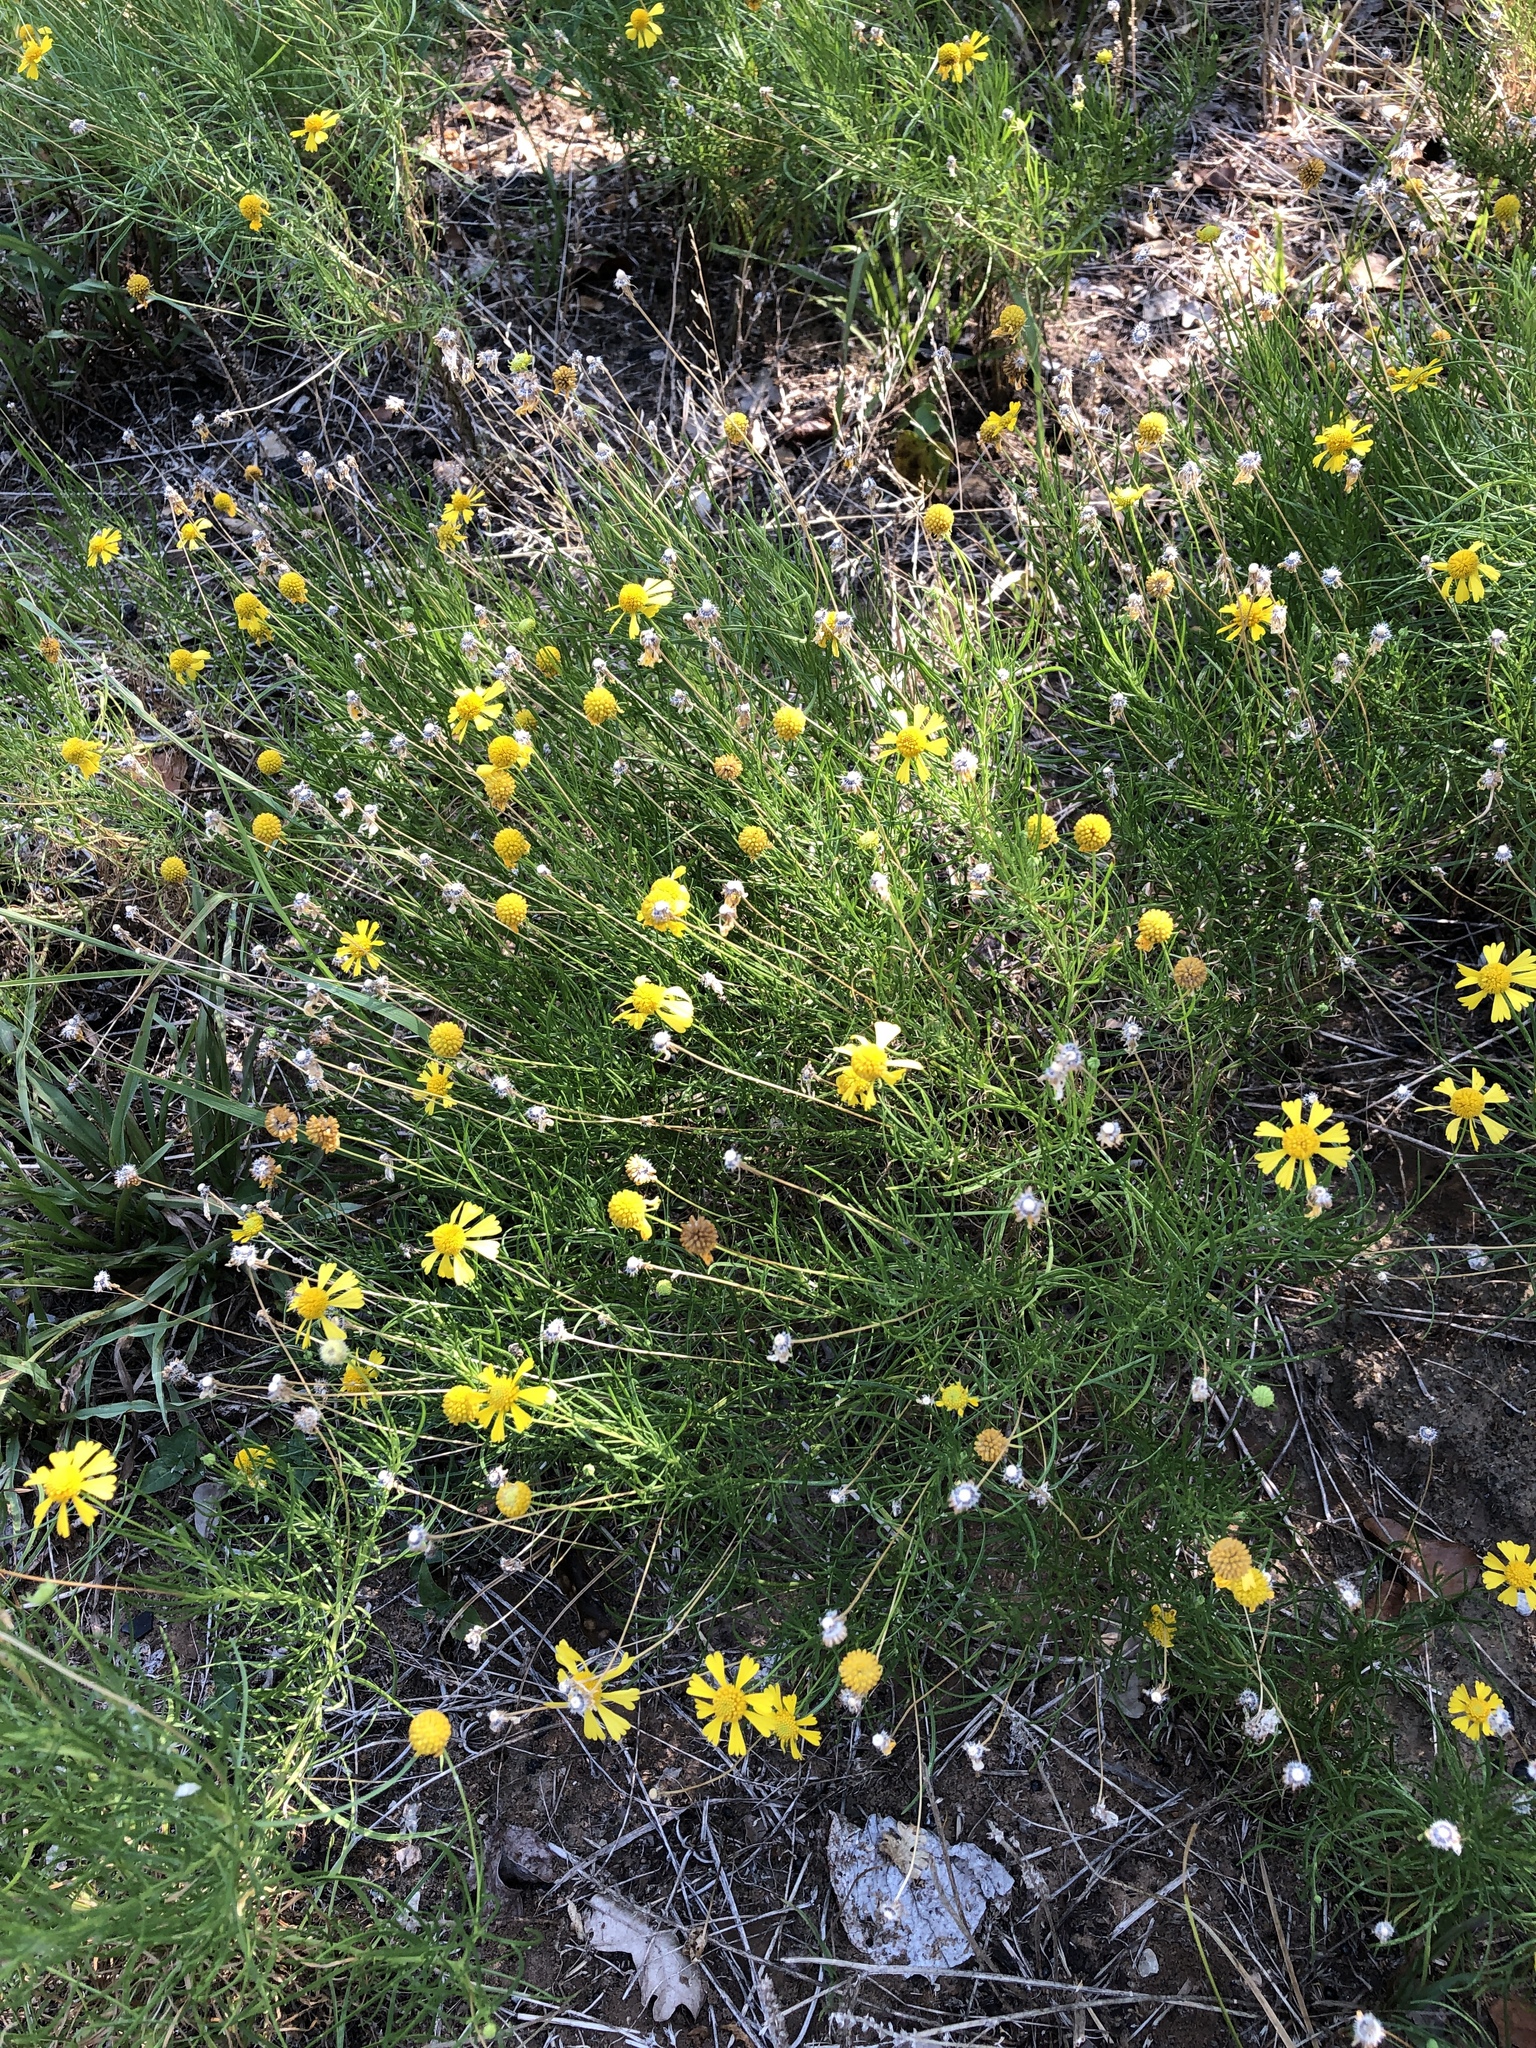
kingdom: Plantae
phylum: Tracheophyta
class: Magnoliopsida
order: Asterales
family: Asteraceae
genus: Helenium
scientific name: Helenium amarum
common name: Bitter sneezeweed
